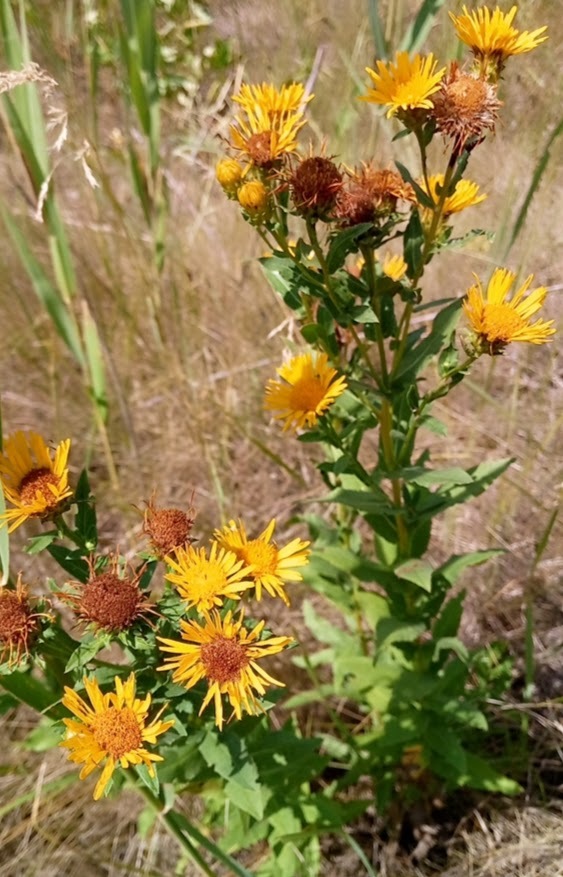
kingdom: Plantae
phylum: Tracheophyta
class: Magnoliopsida
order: Asterales
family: Asteraceae
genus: Pentanema
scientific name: Pentanema asperum
